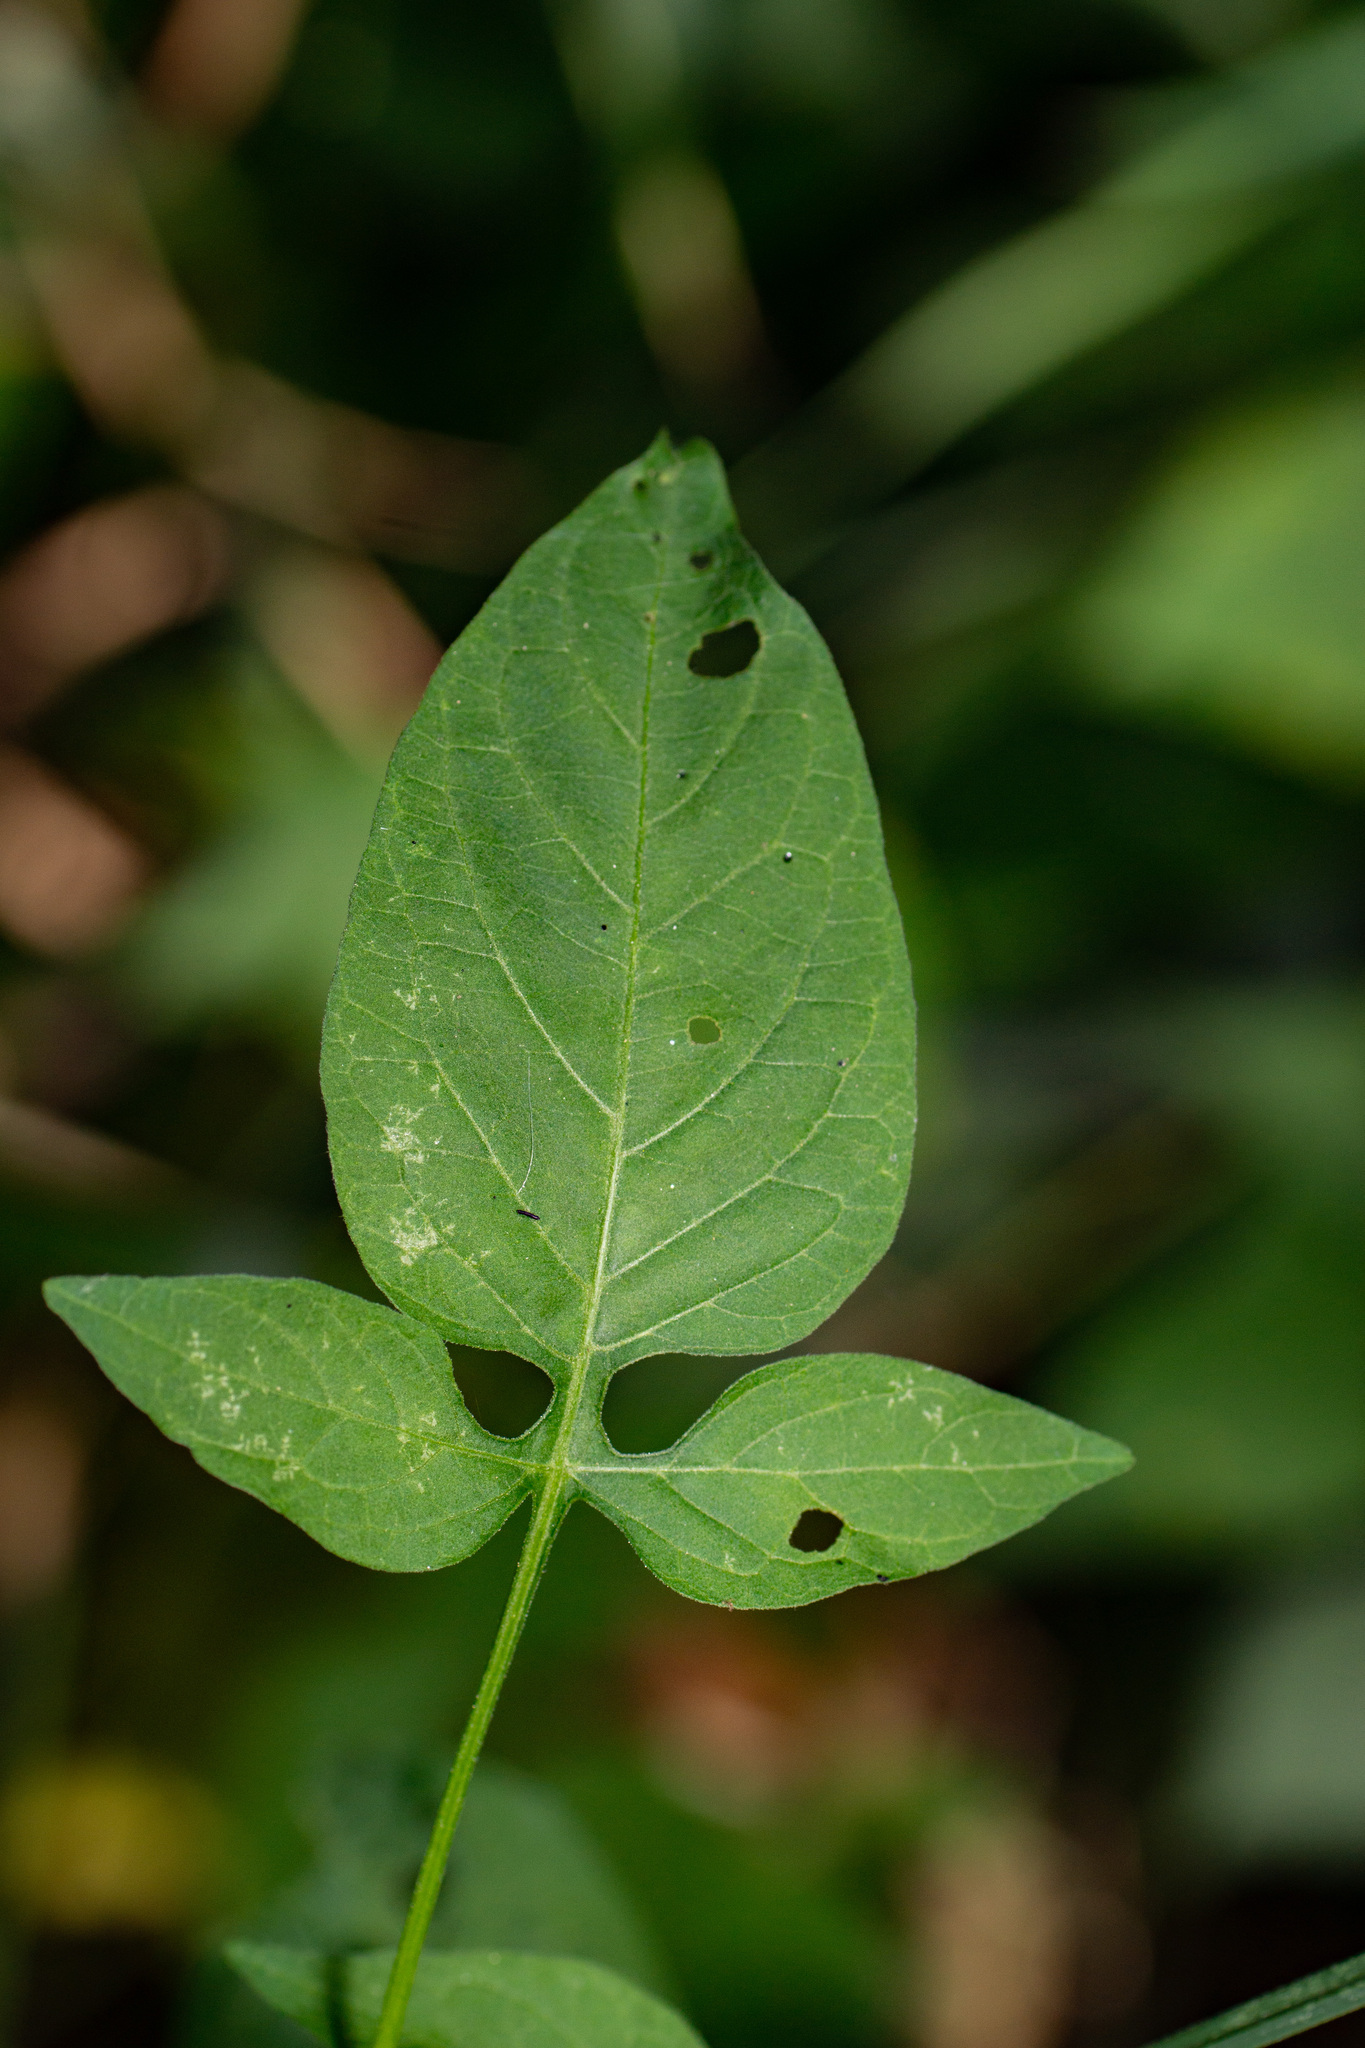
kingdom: Plantae
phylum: Tracheophyta
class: Magnoliopsida
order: Solanales
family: Solanaceae
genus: Solanum
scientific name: Solanum dulcamara
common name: Climbing nightshade
